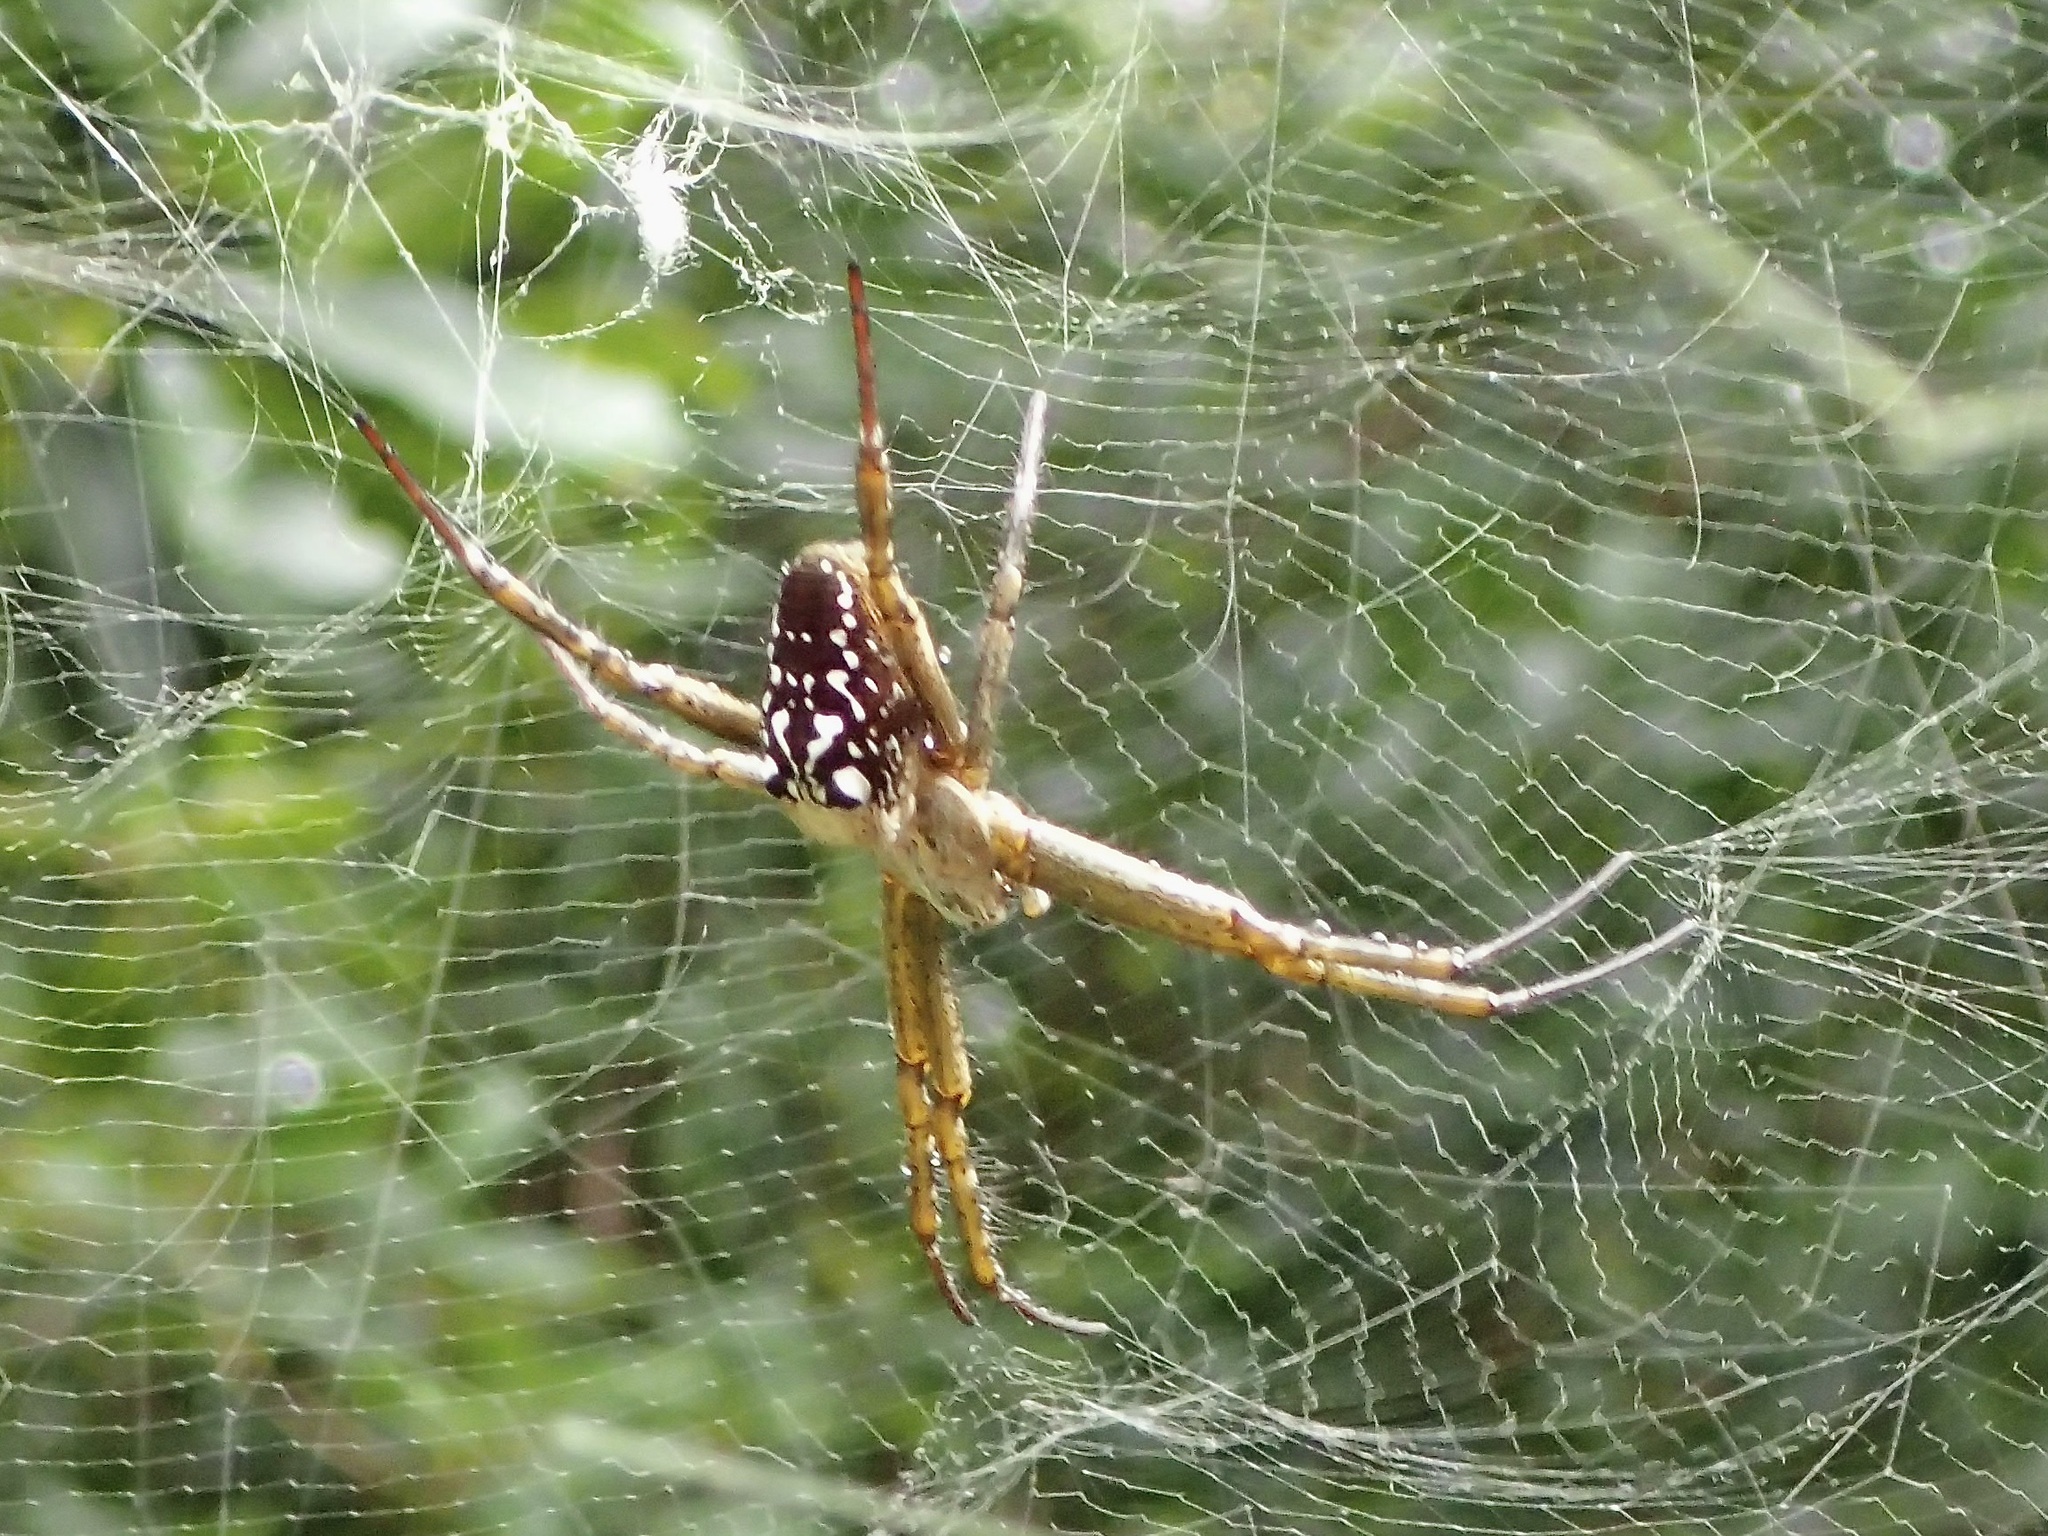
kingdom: Chromista
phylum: Ochrophyta
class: Dictyochophyceae
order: Pedinellales
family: Cyrtophoraceae
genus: Cyrtophora
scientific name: Cyrtophora moluccensis
